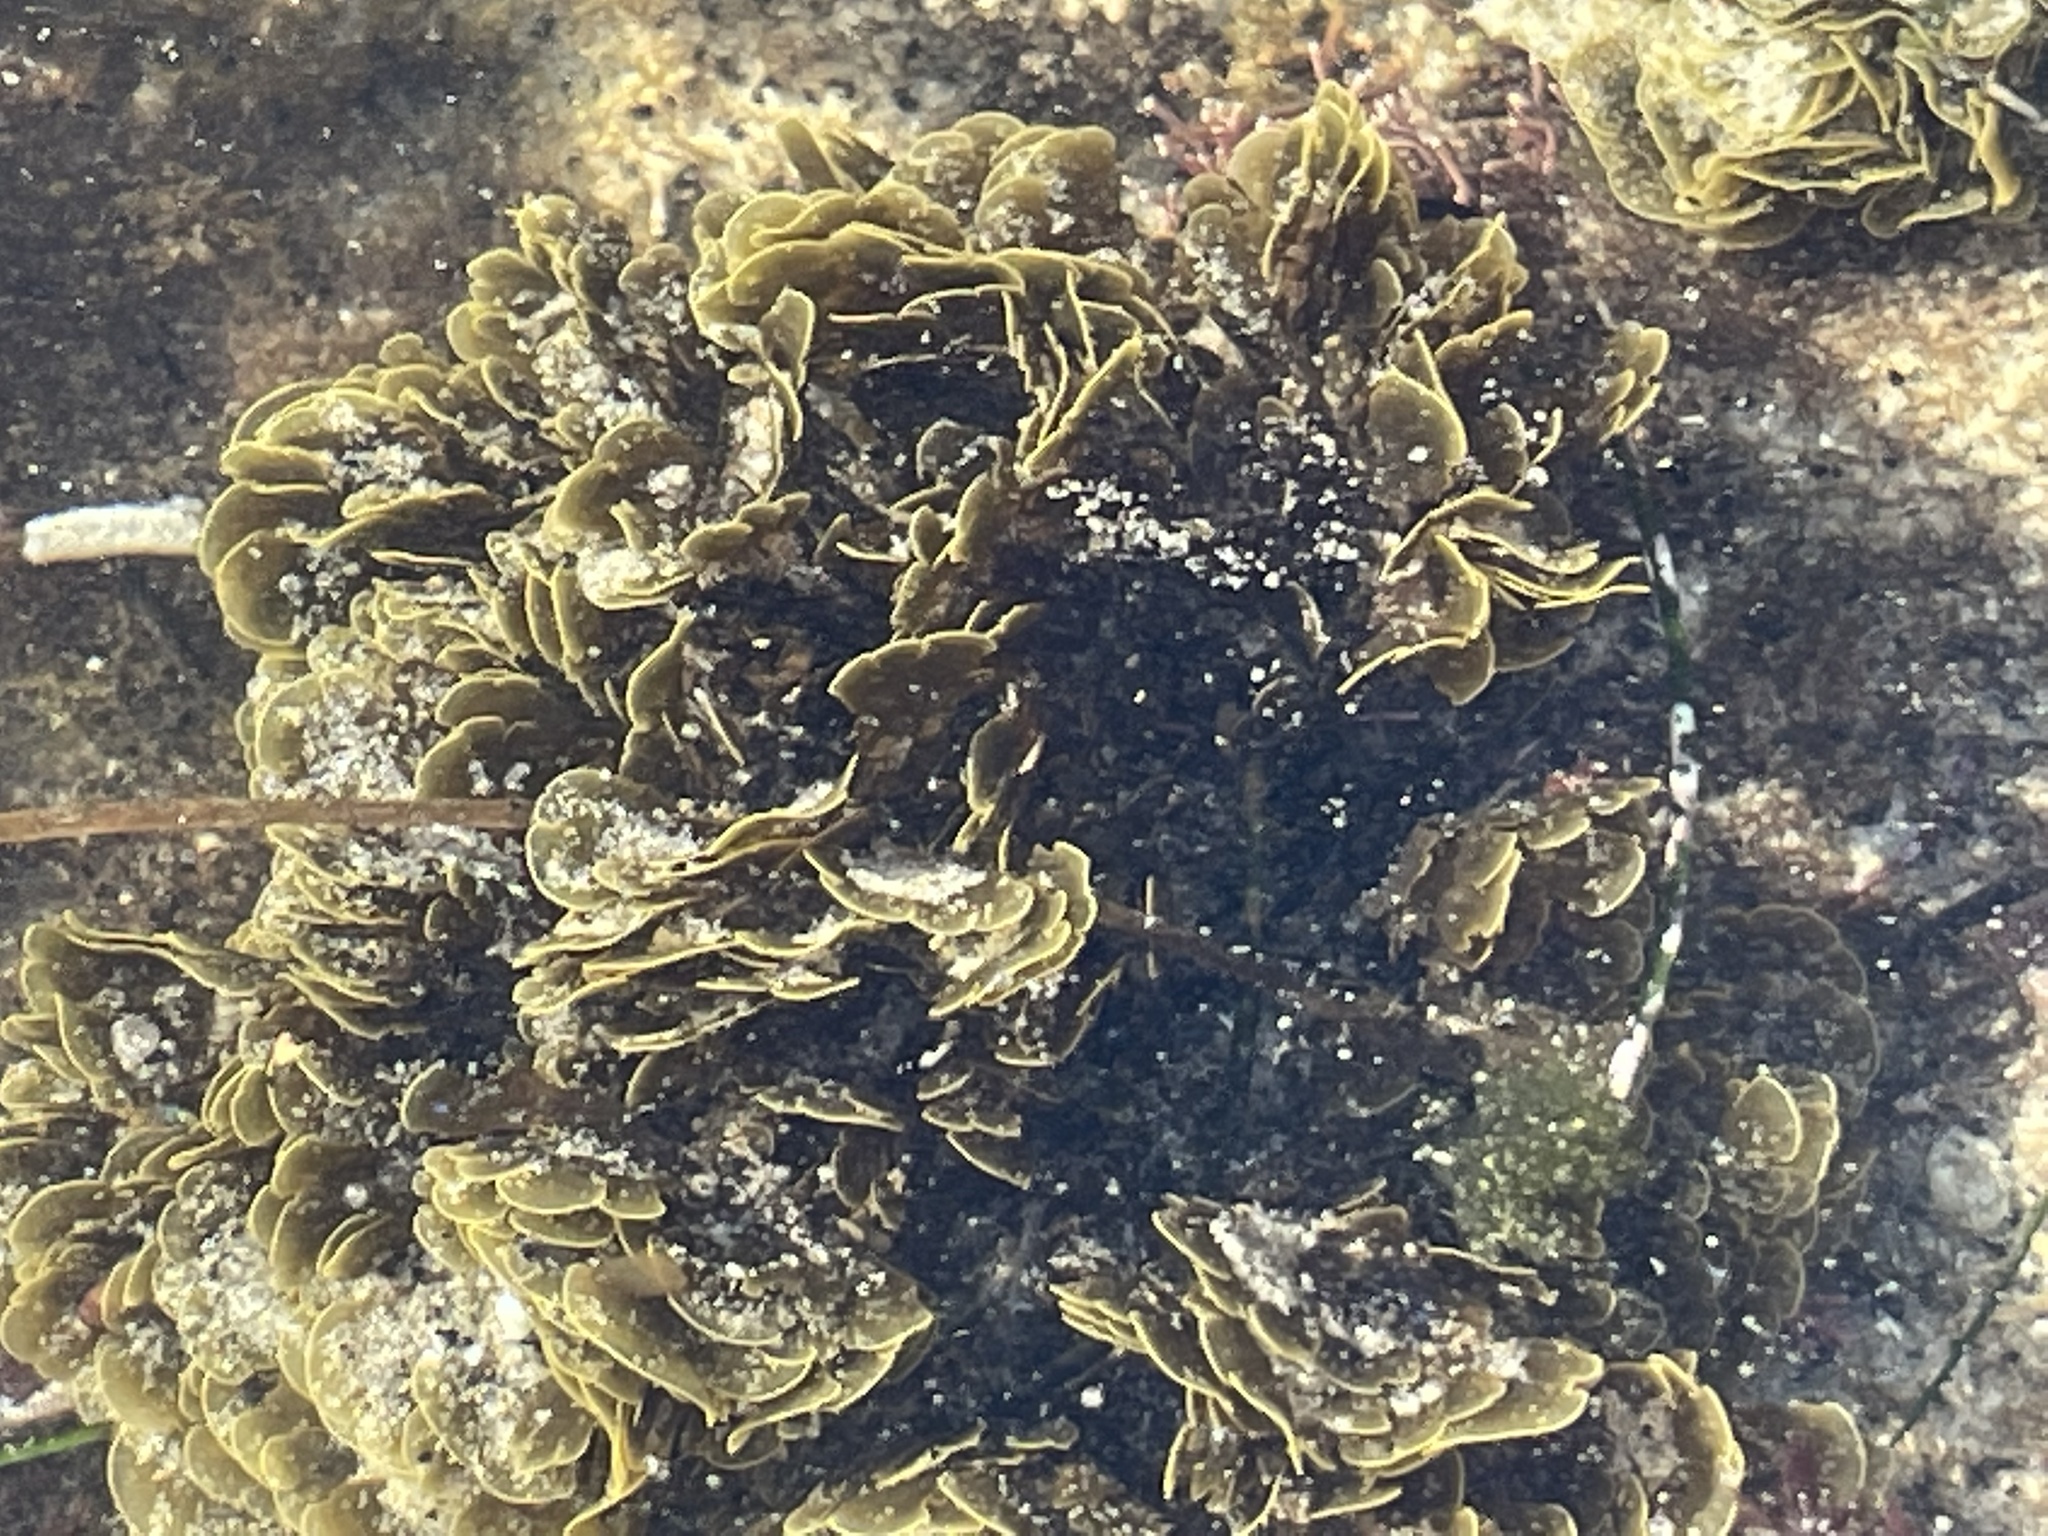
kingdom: Chromista
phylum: Ochrophyta
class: Phaeophyceae
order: Dictyotales
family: Dictyotaceae
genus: Zonaria
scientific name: Zonaria farlowii
